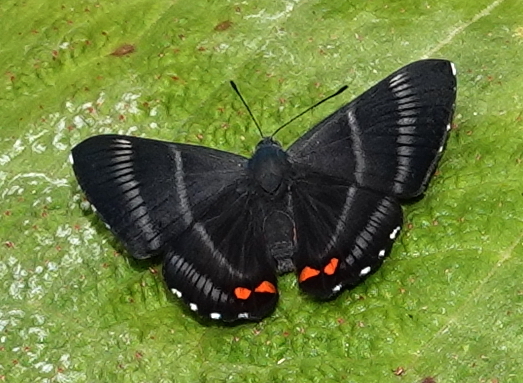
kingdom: Animalia
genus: Siseme
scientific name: Siseme aristoteles
